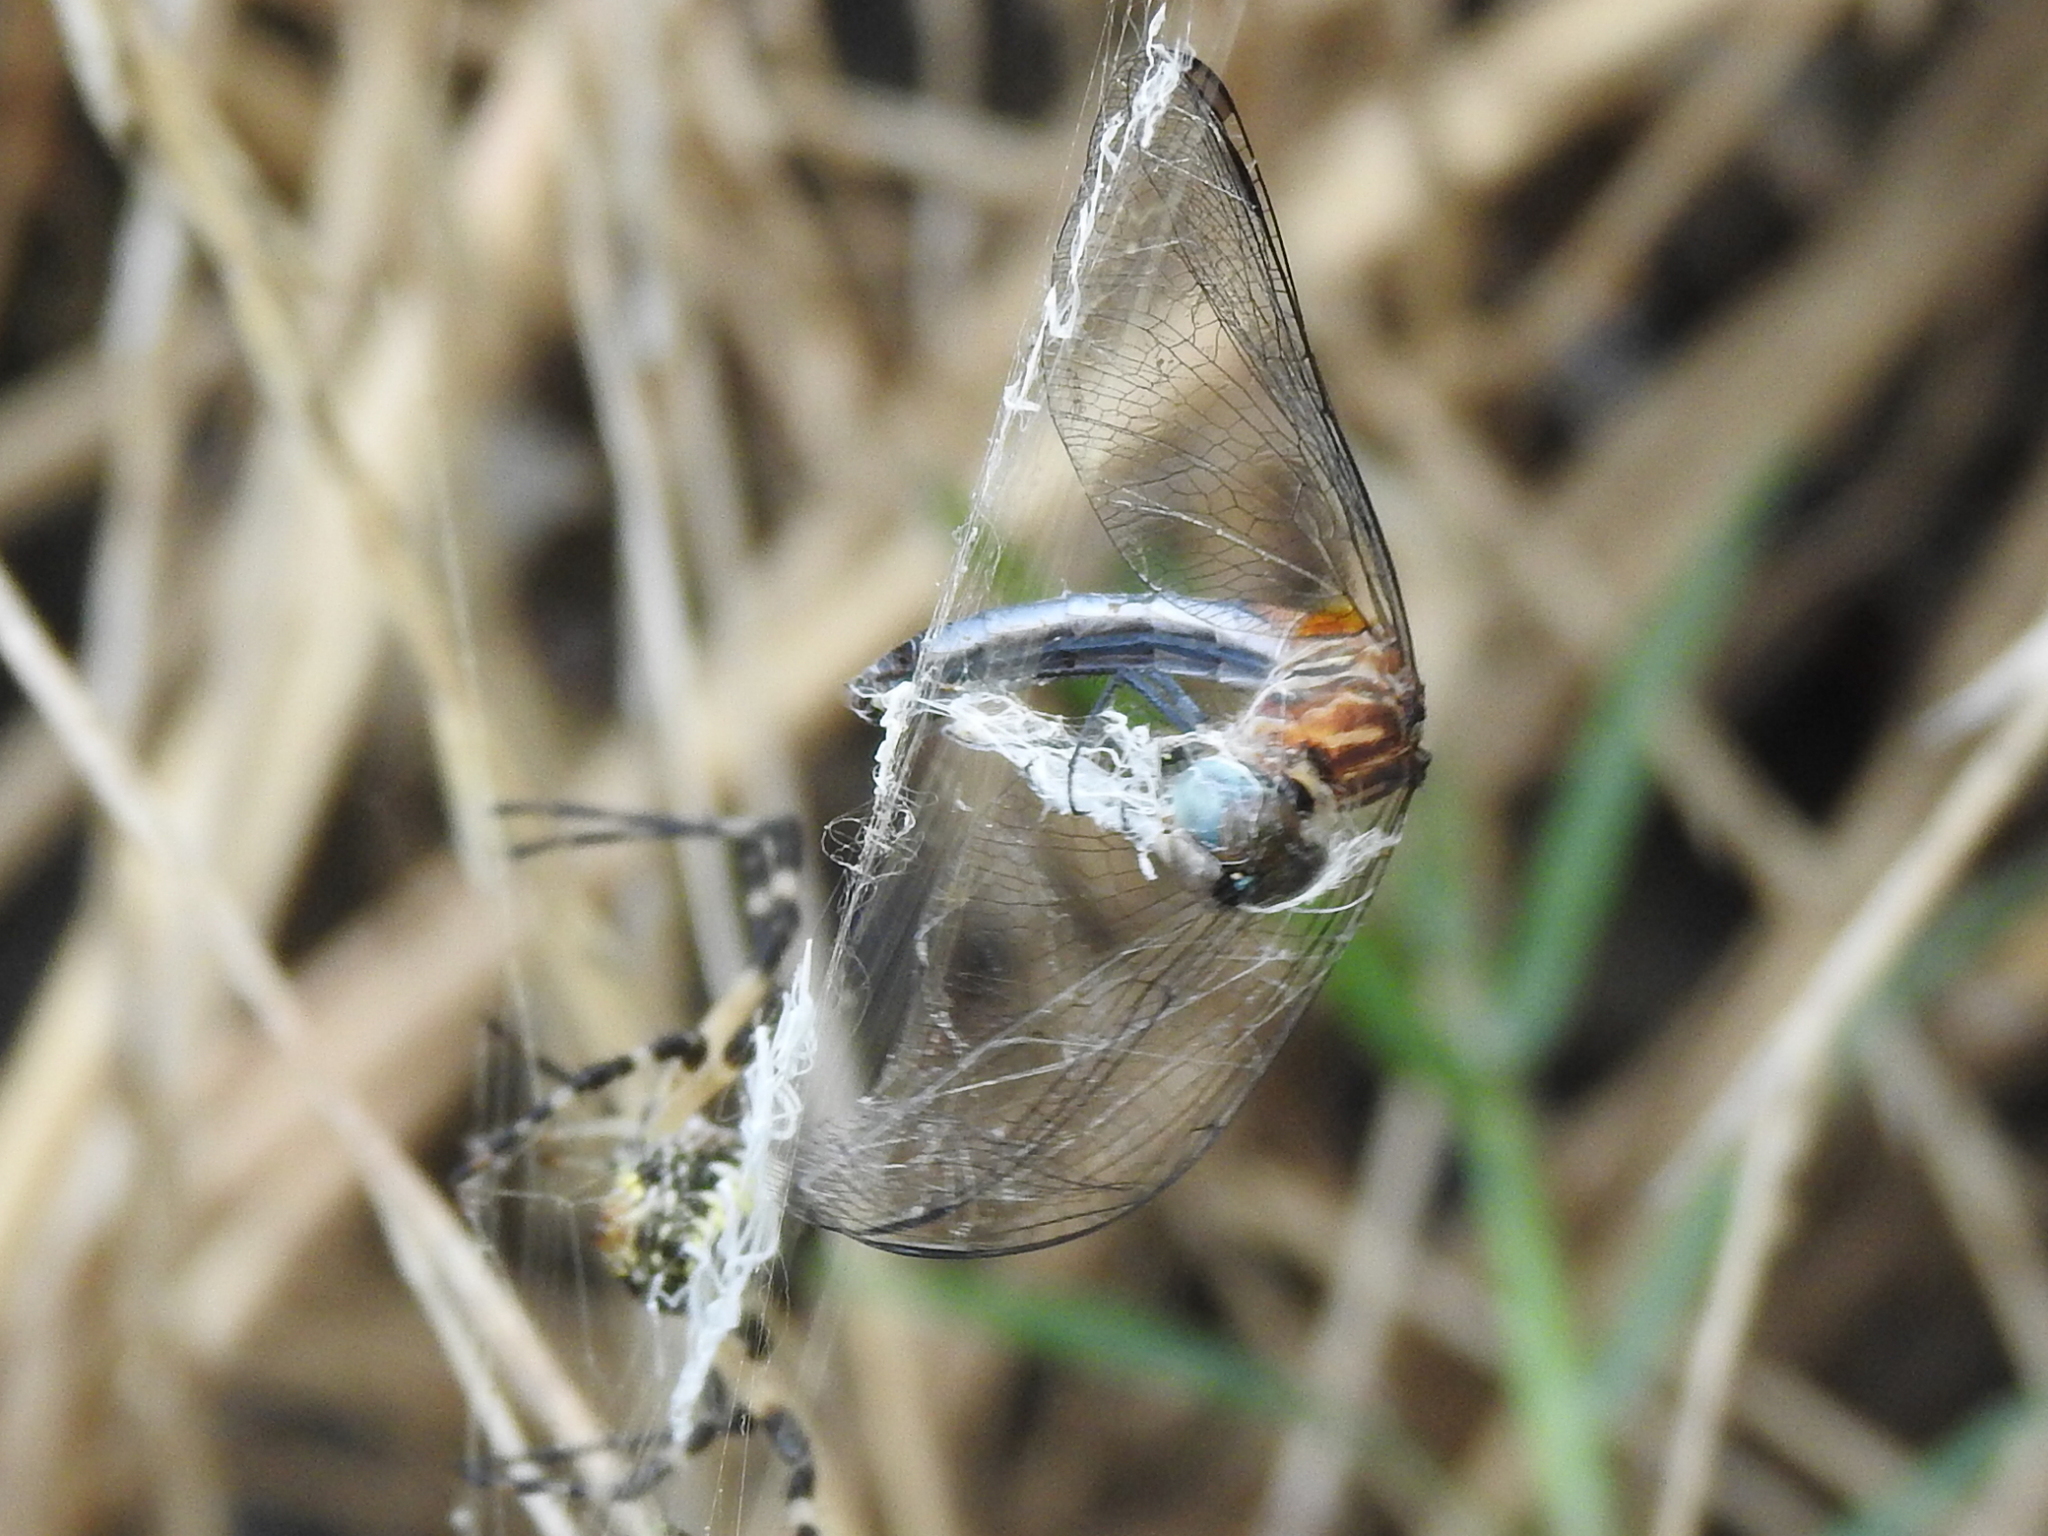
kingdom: Animalia
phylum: Arthropoda
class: Arachnida
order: Araneae
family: Araneidae
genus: Argiope
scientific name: Argiope aurantia
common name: Orb weavers
